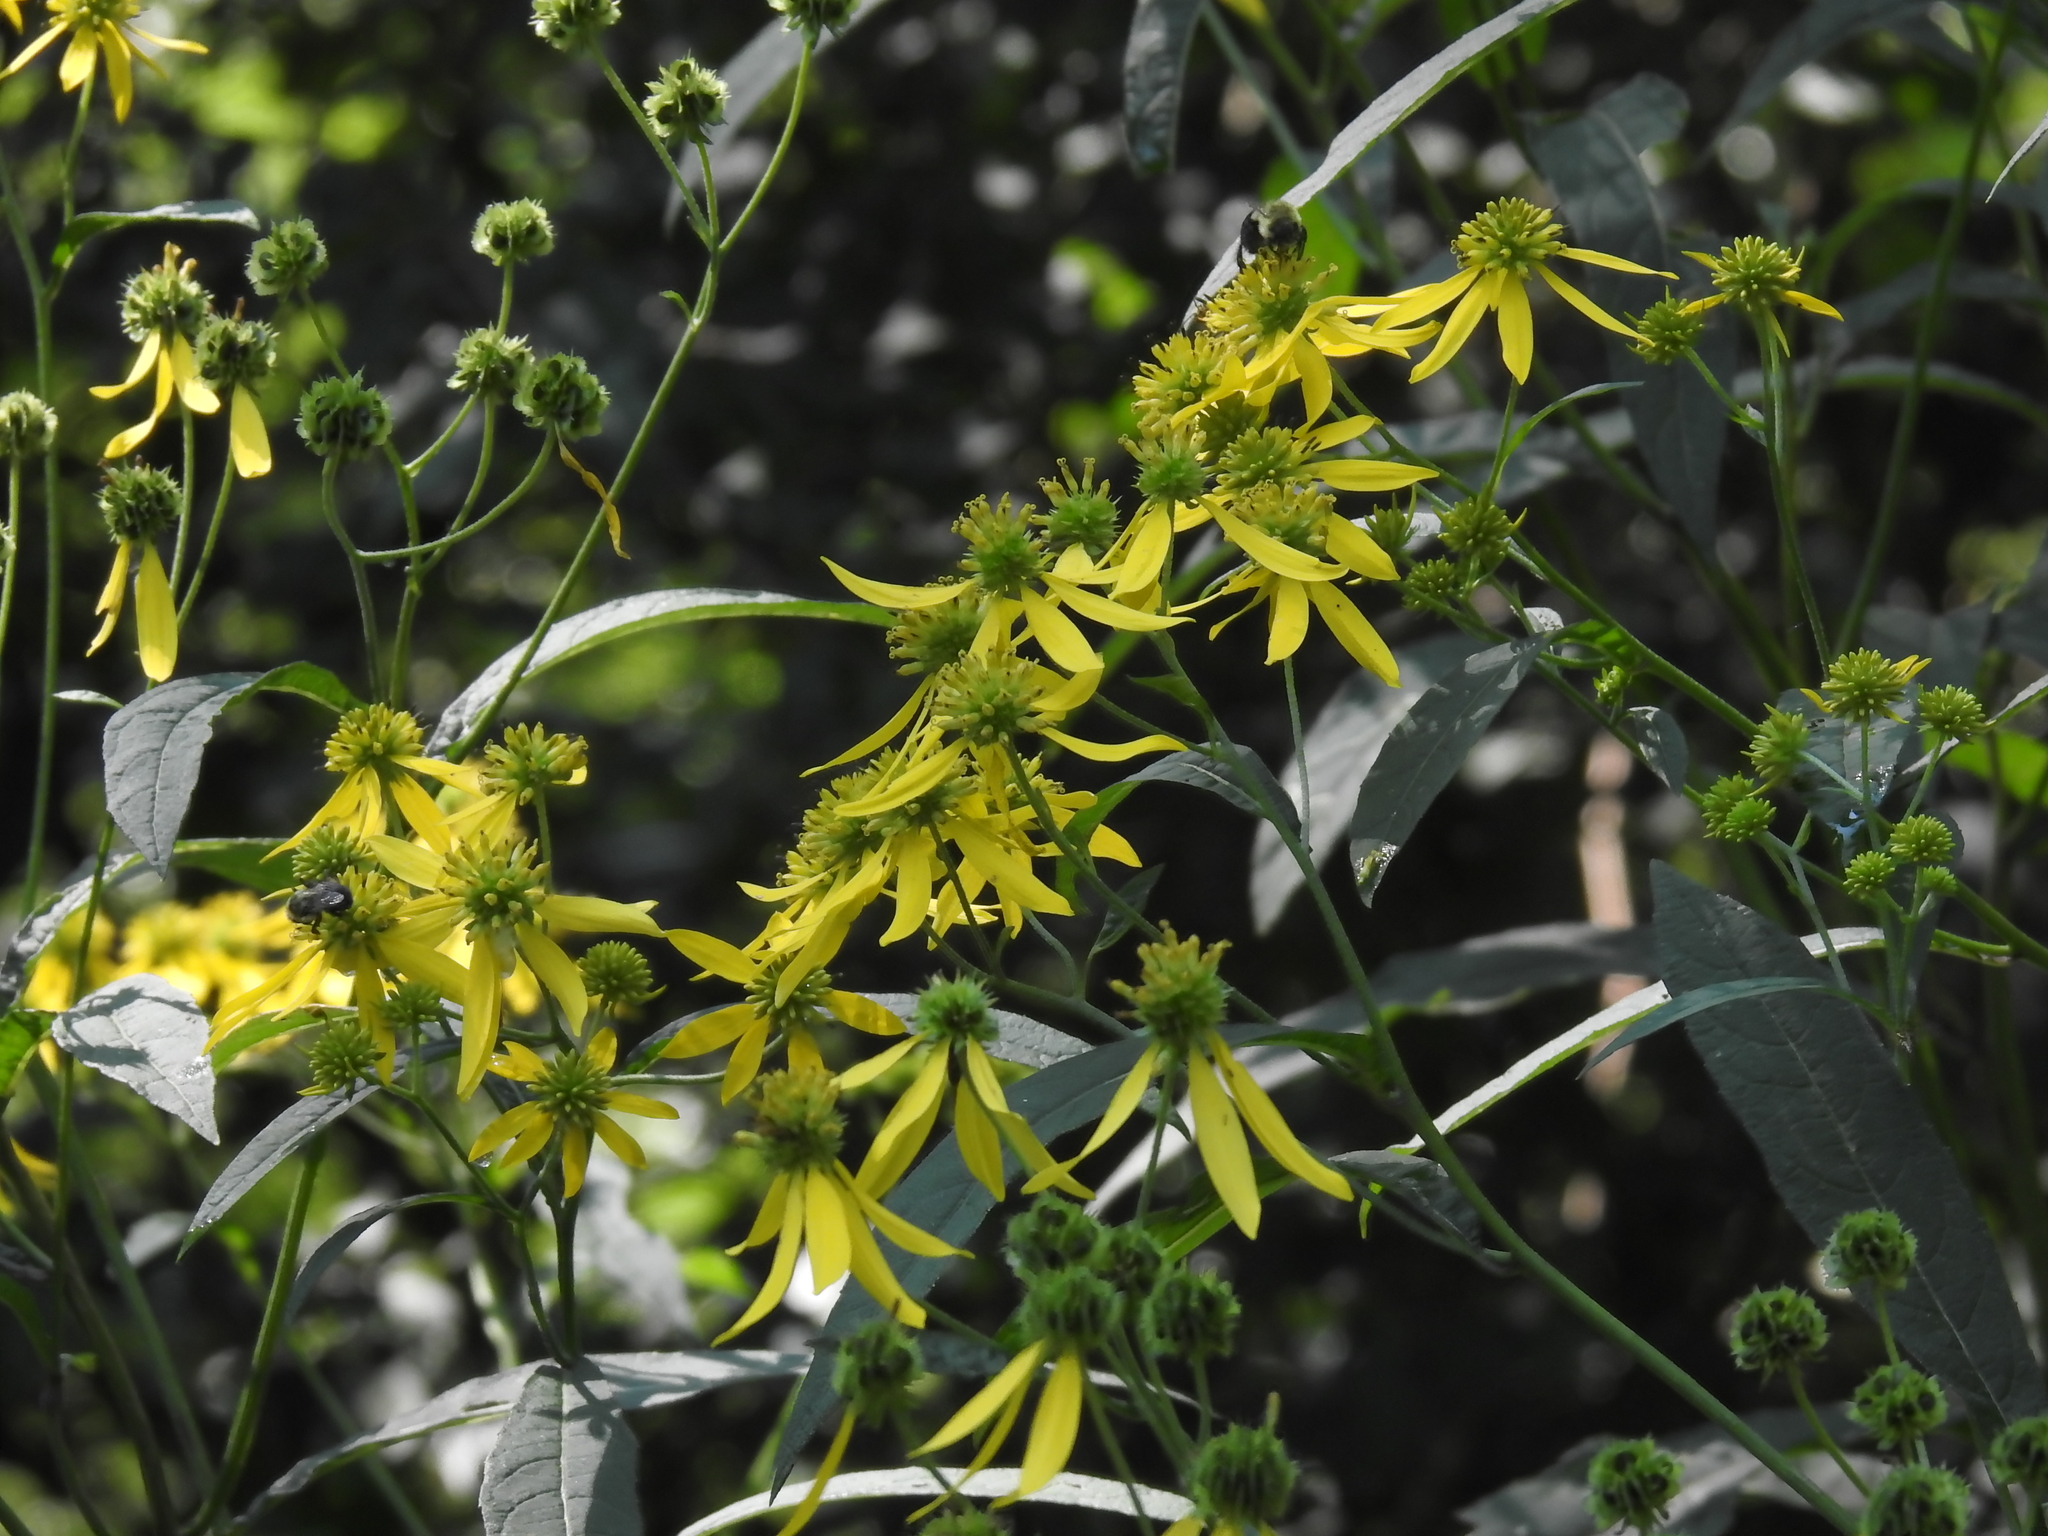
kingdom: Plantae
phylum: Tracheophyta
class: Magnoliopsida
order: Asterales
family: Asteraceae
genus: Verbesina
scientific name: Verbesina alternifolia
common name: Wingstem
